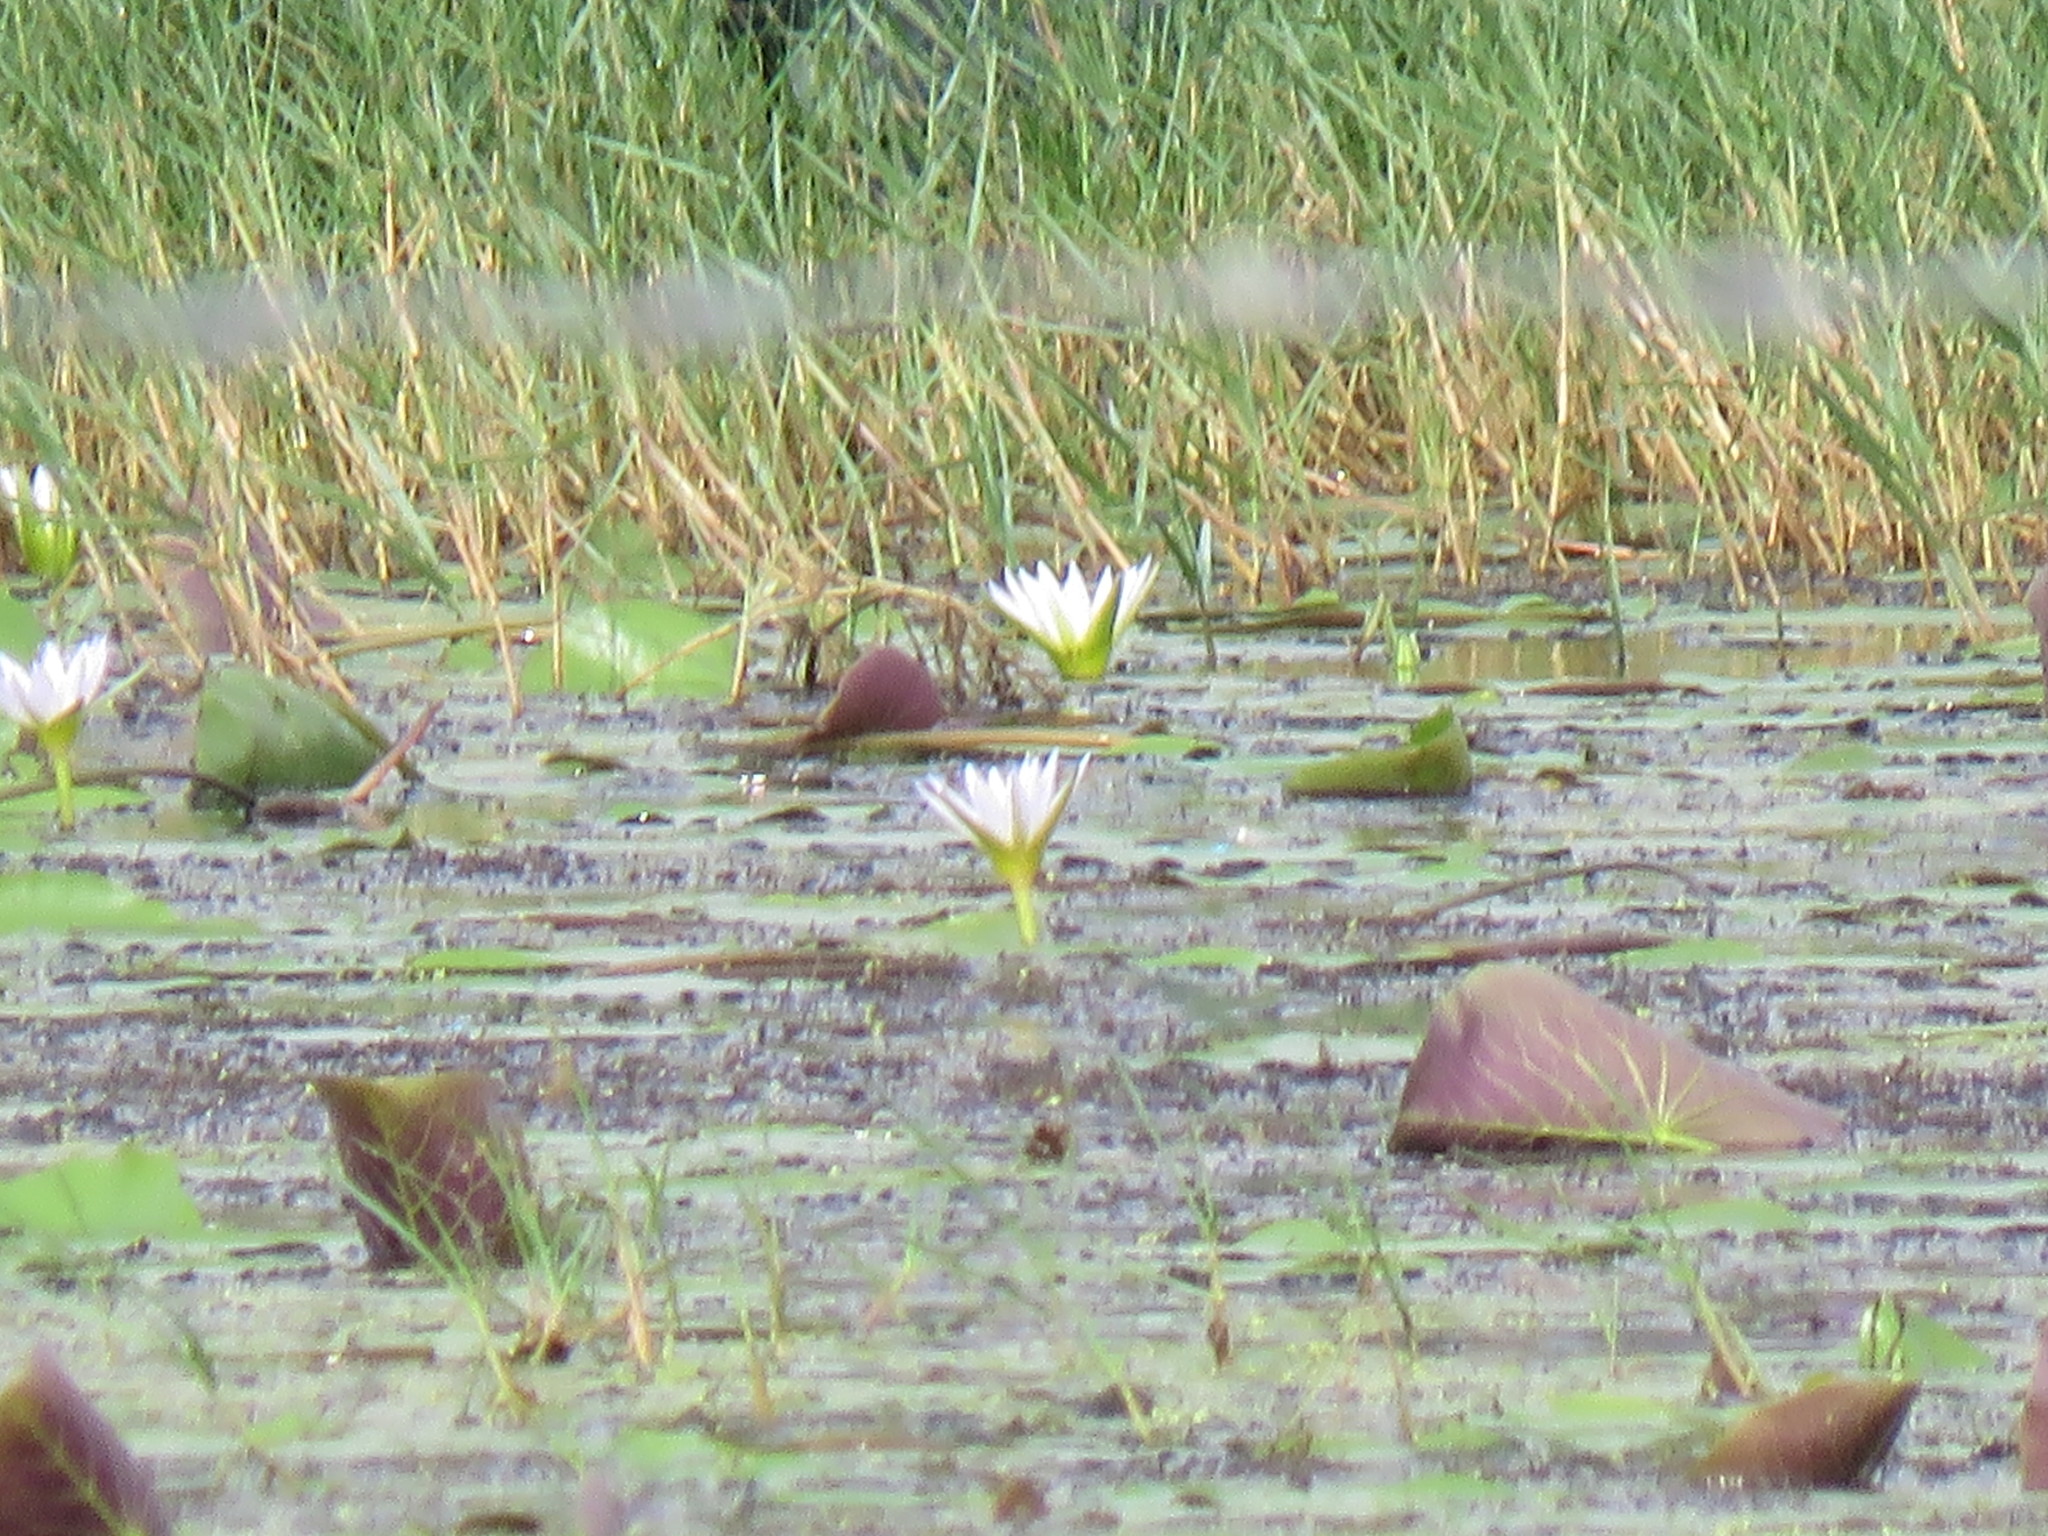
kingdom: Plantae
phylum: Tracheophyta
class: Magnoliopsida
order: Nymphaeales
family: Nymphaeaceae
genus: Nymphaea
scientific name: Nymphaea alba
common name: White water-lily
